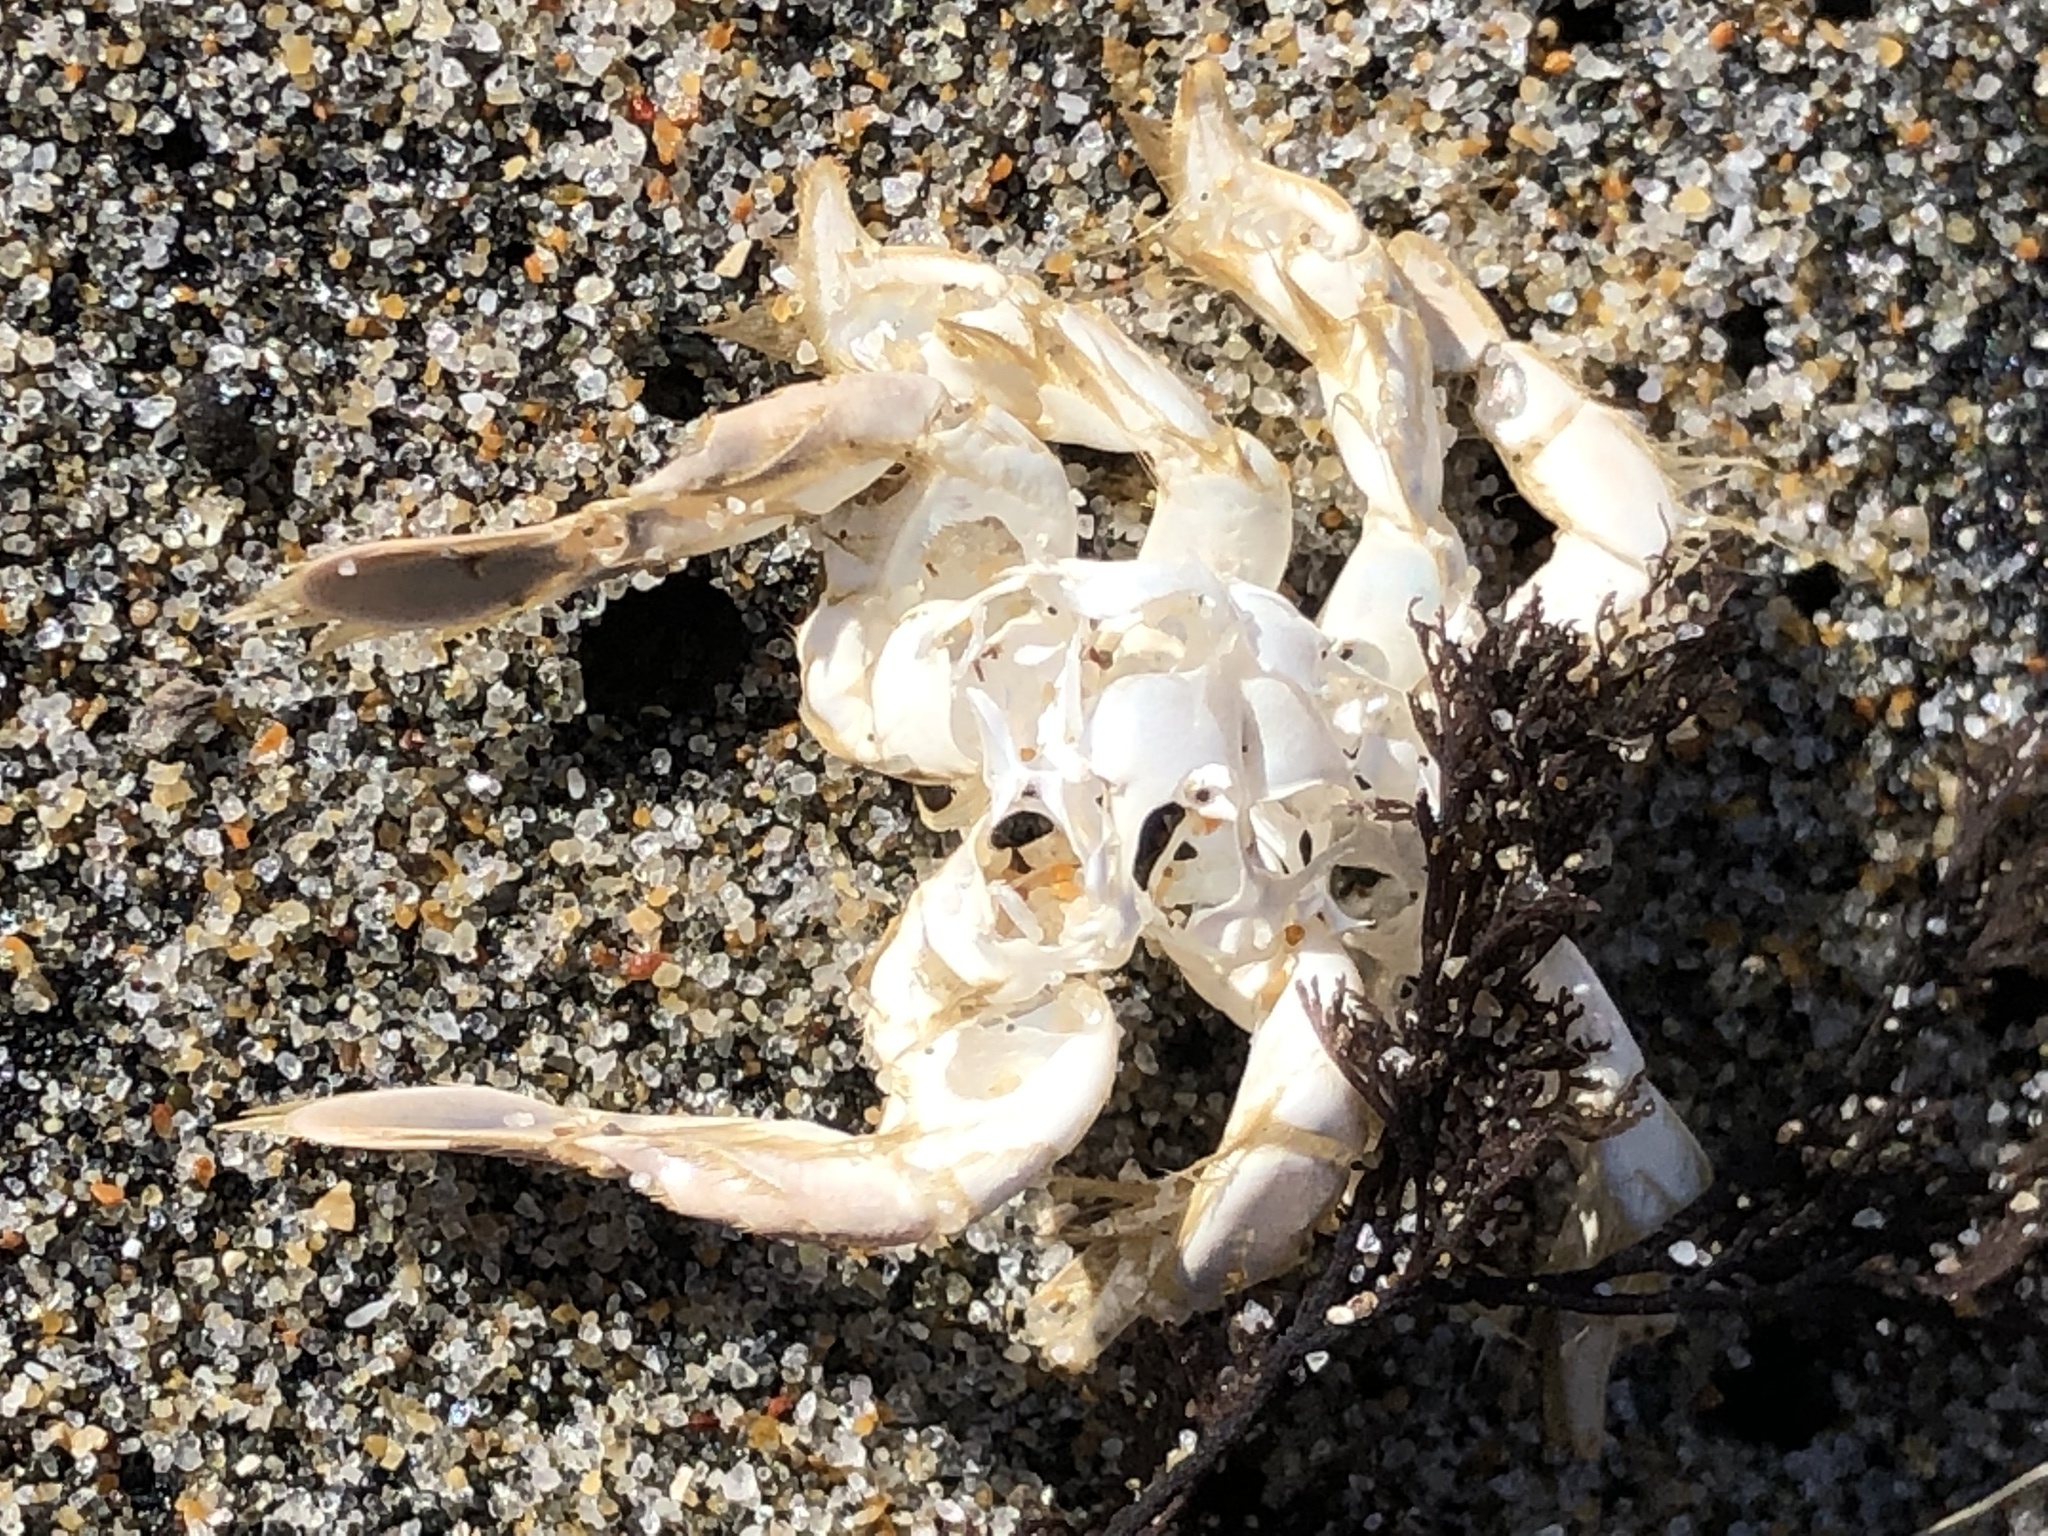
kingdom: Animalia
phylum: Arthropoda
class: Malacostraca
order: Decapoda
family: Hippidae
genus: Emerita
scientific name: Emerita analoga
